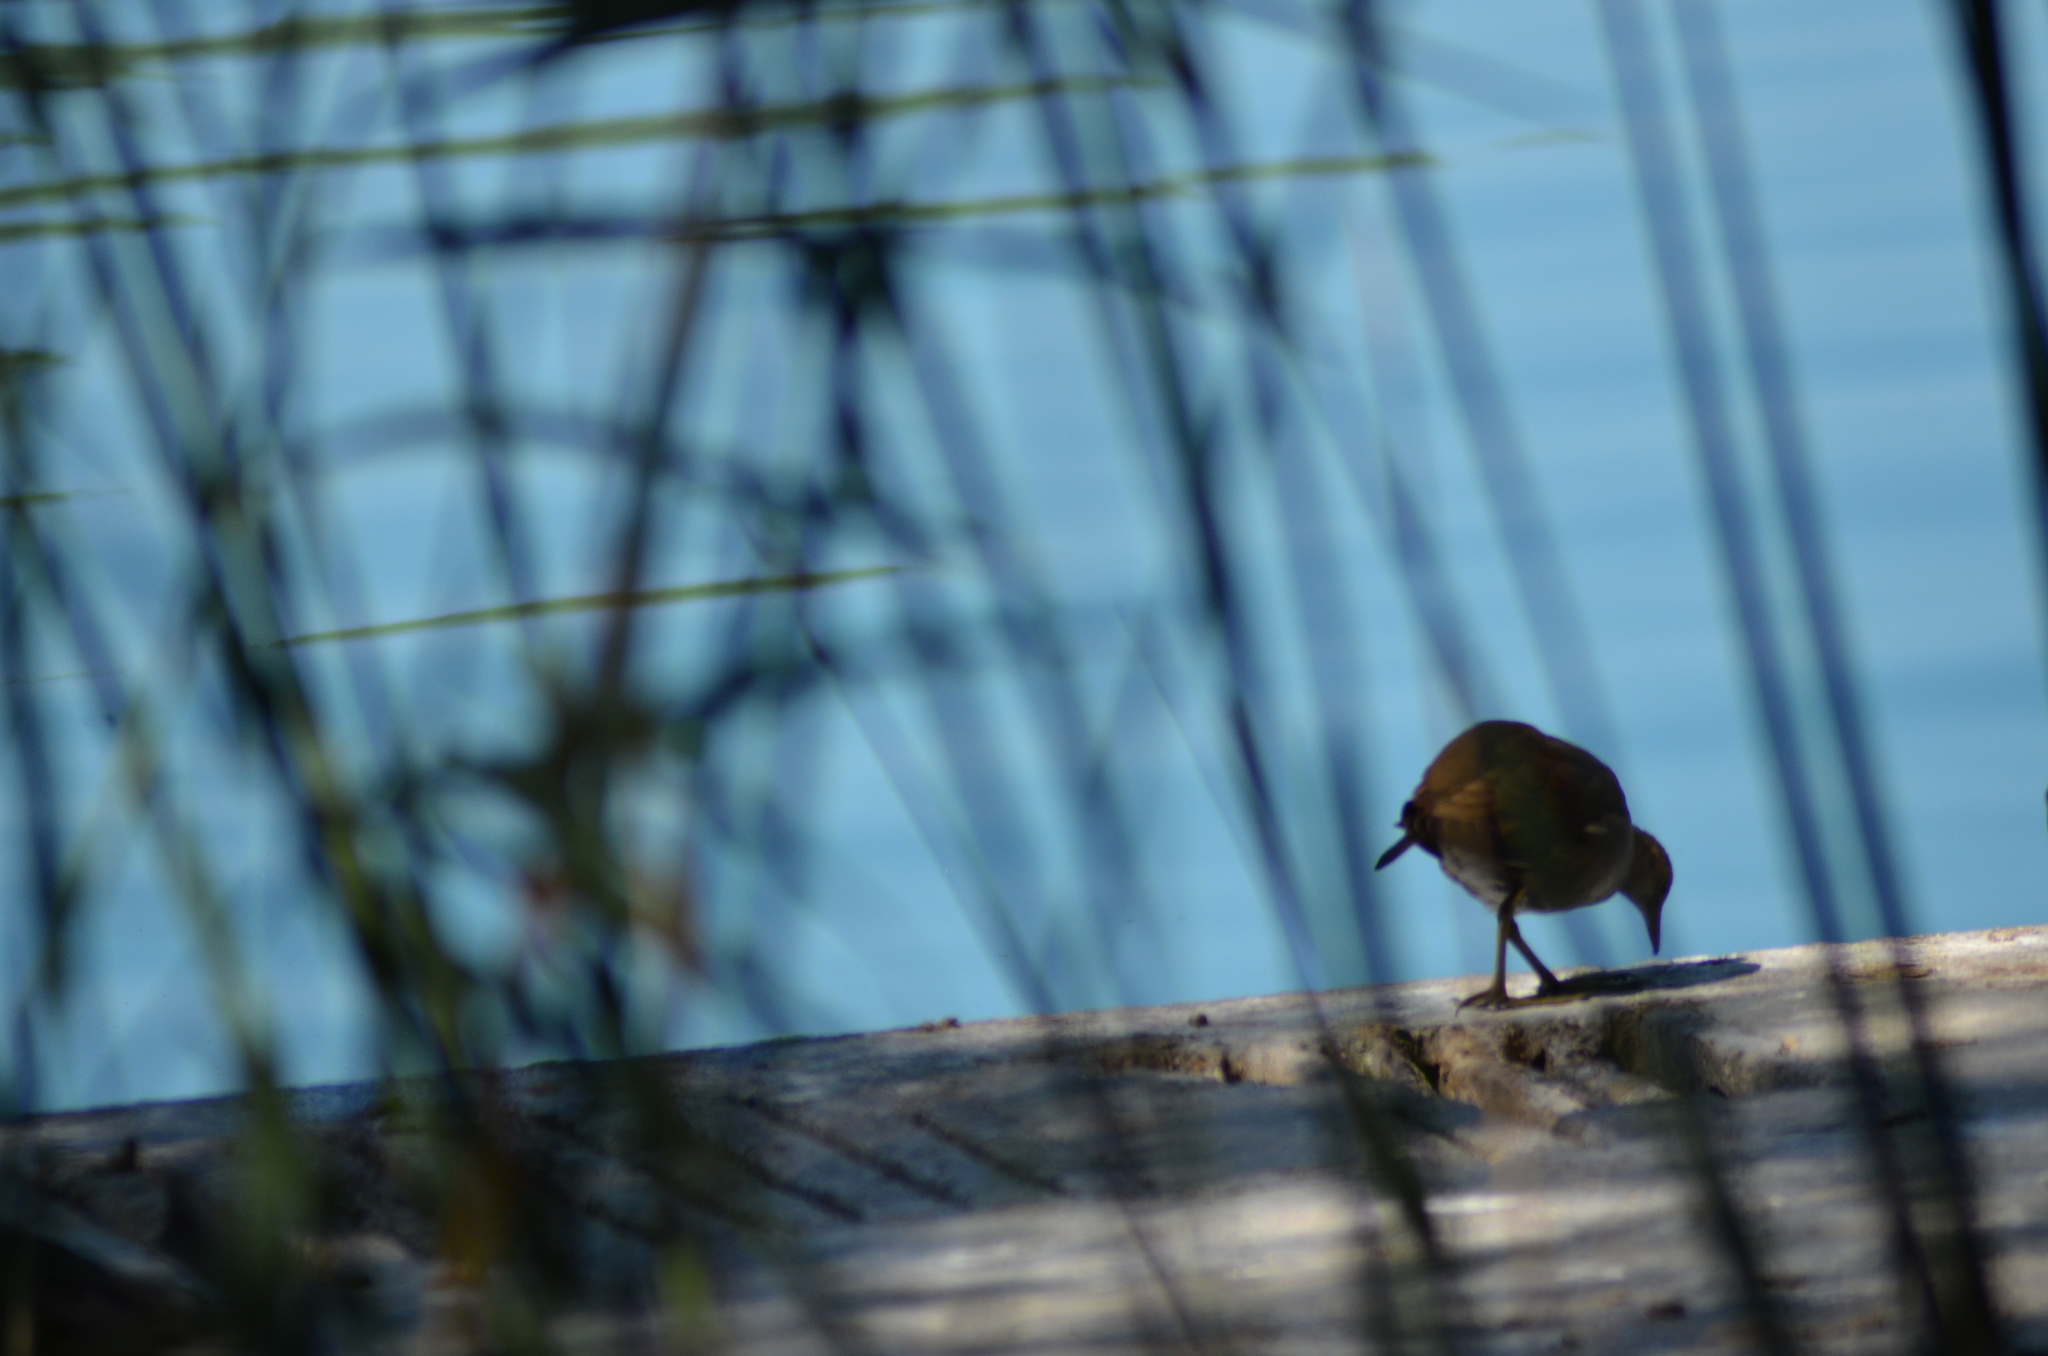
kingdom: Animalia
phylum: Chordata
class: Aves
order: Gruiformes
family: Rallidae
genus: Gallinula
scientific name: Gallinula chloropus
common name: Common moorhen
